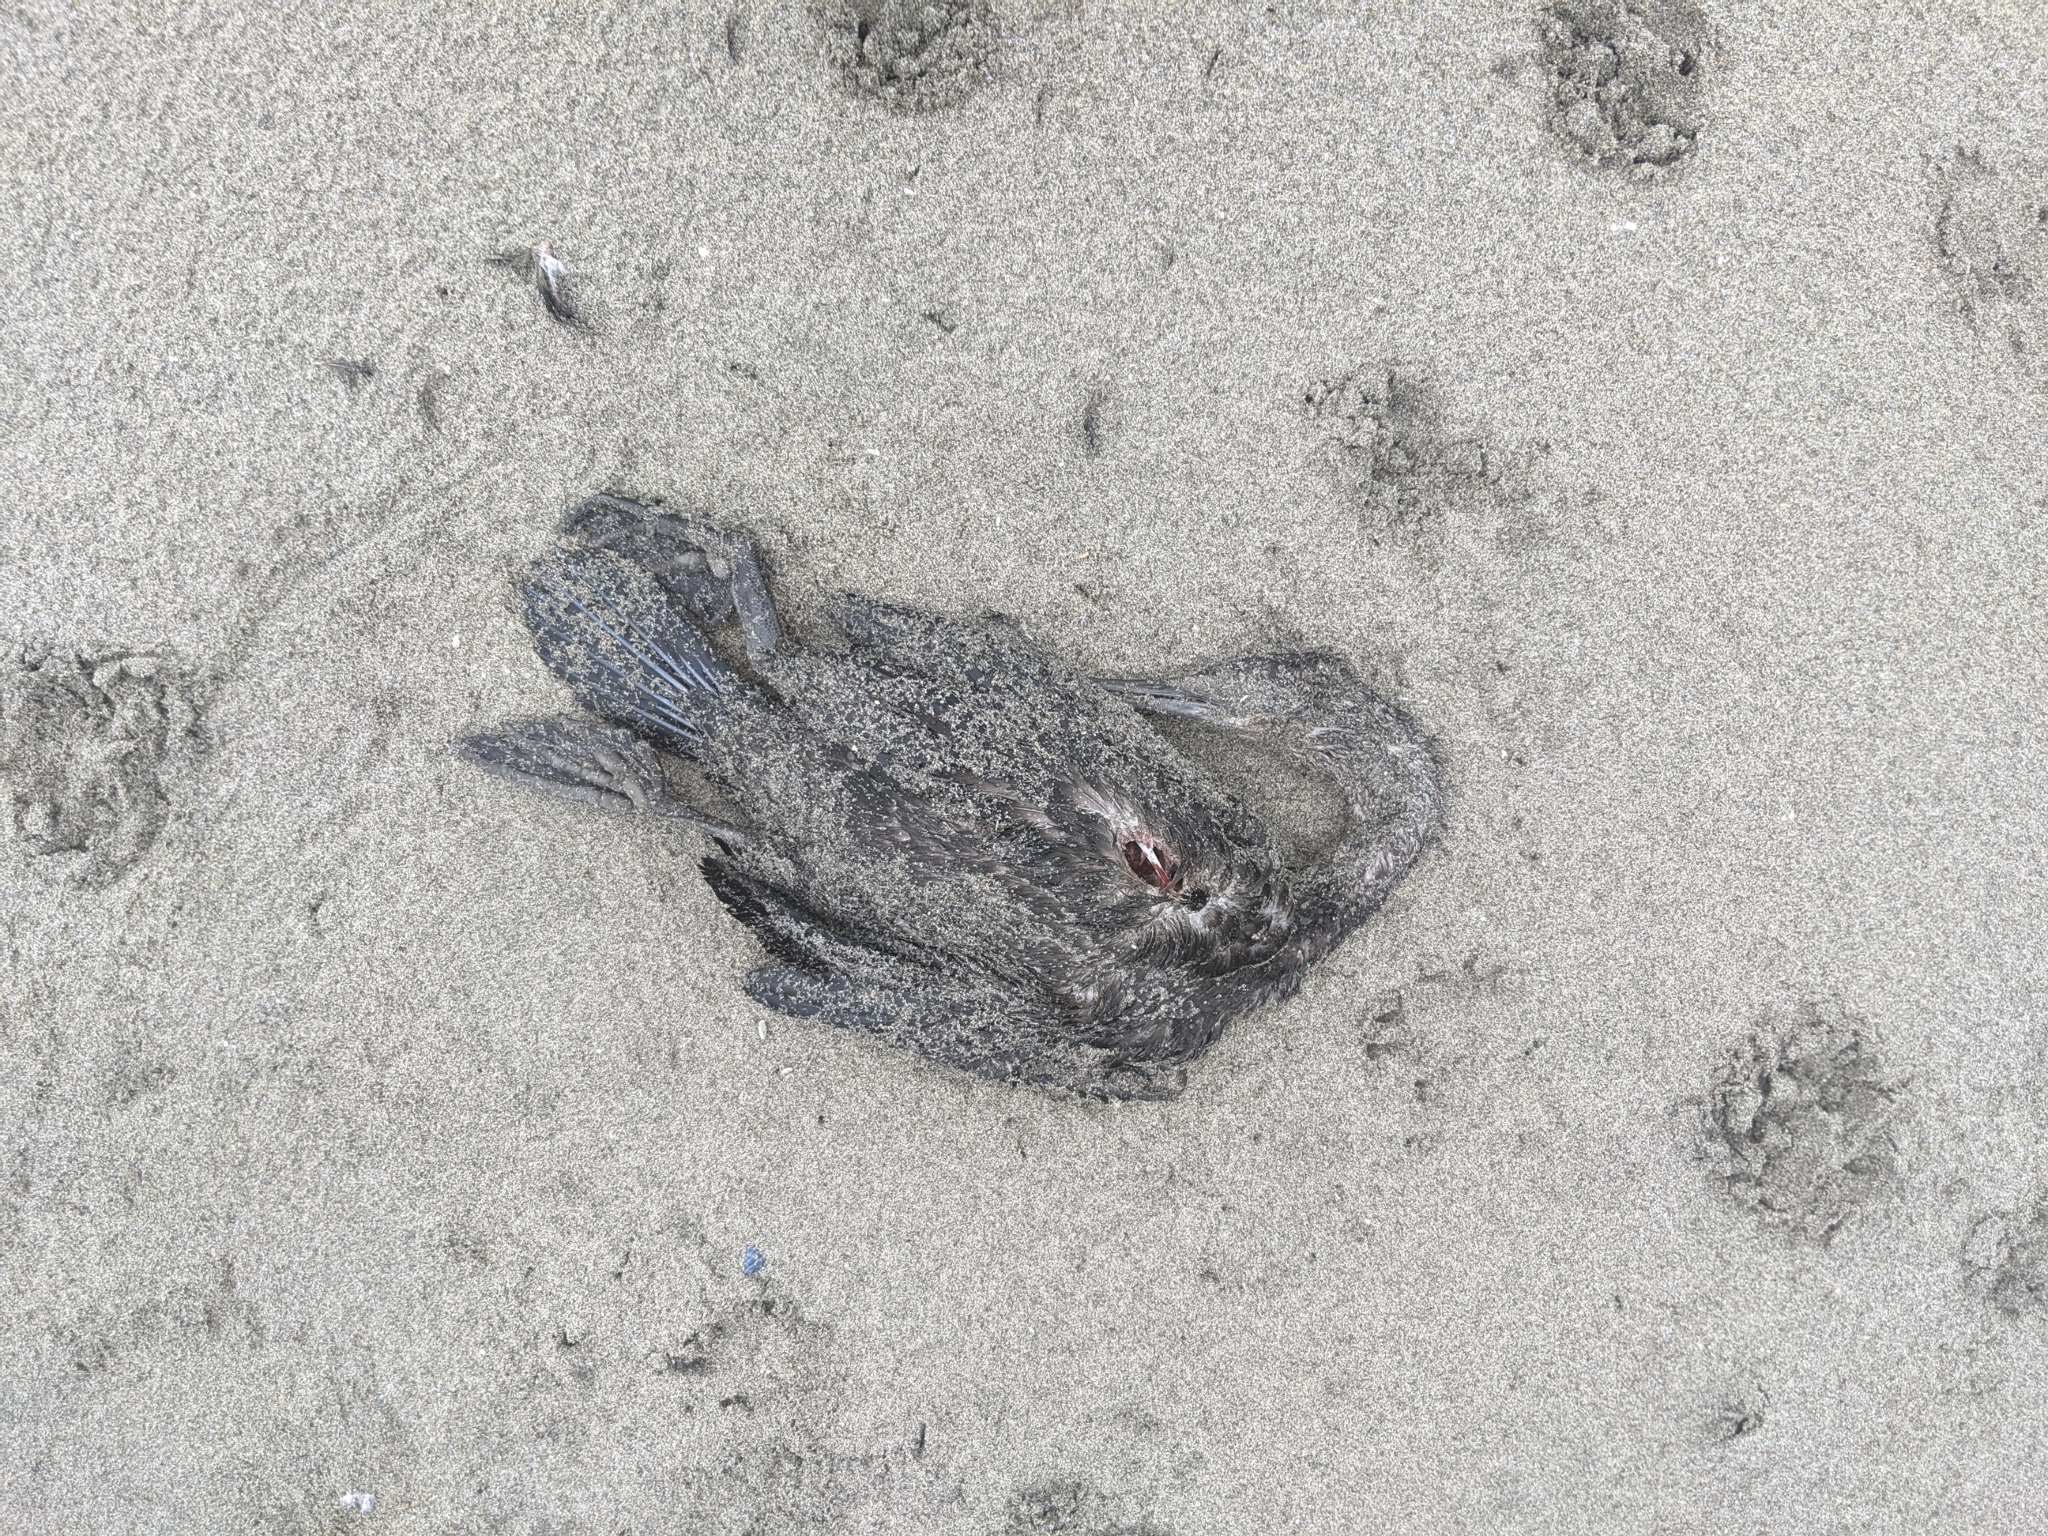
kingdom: Animalia
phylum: Chordata
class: Aves
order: Suliformes
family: Phalacrocoracidae
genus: Urile
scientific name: Urile penicillatus
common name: Brandt's cormorant
